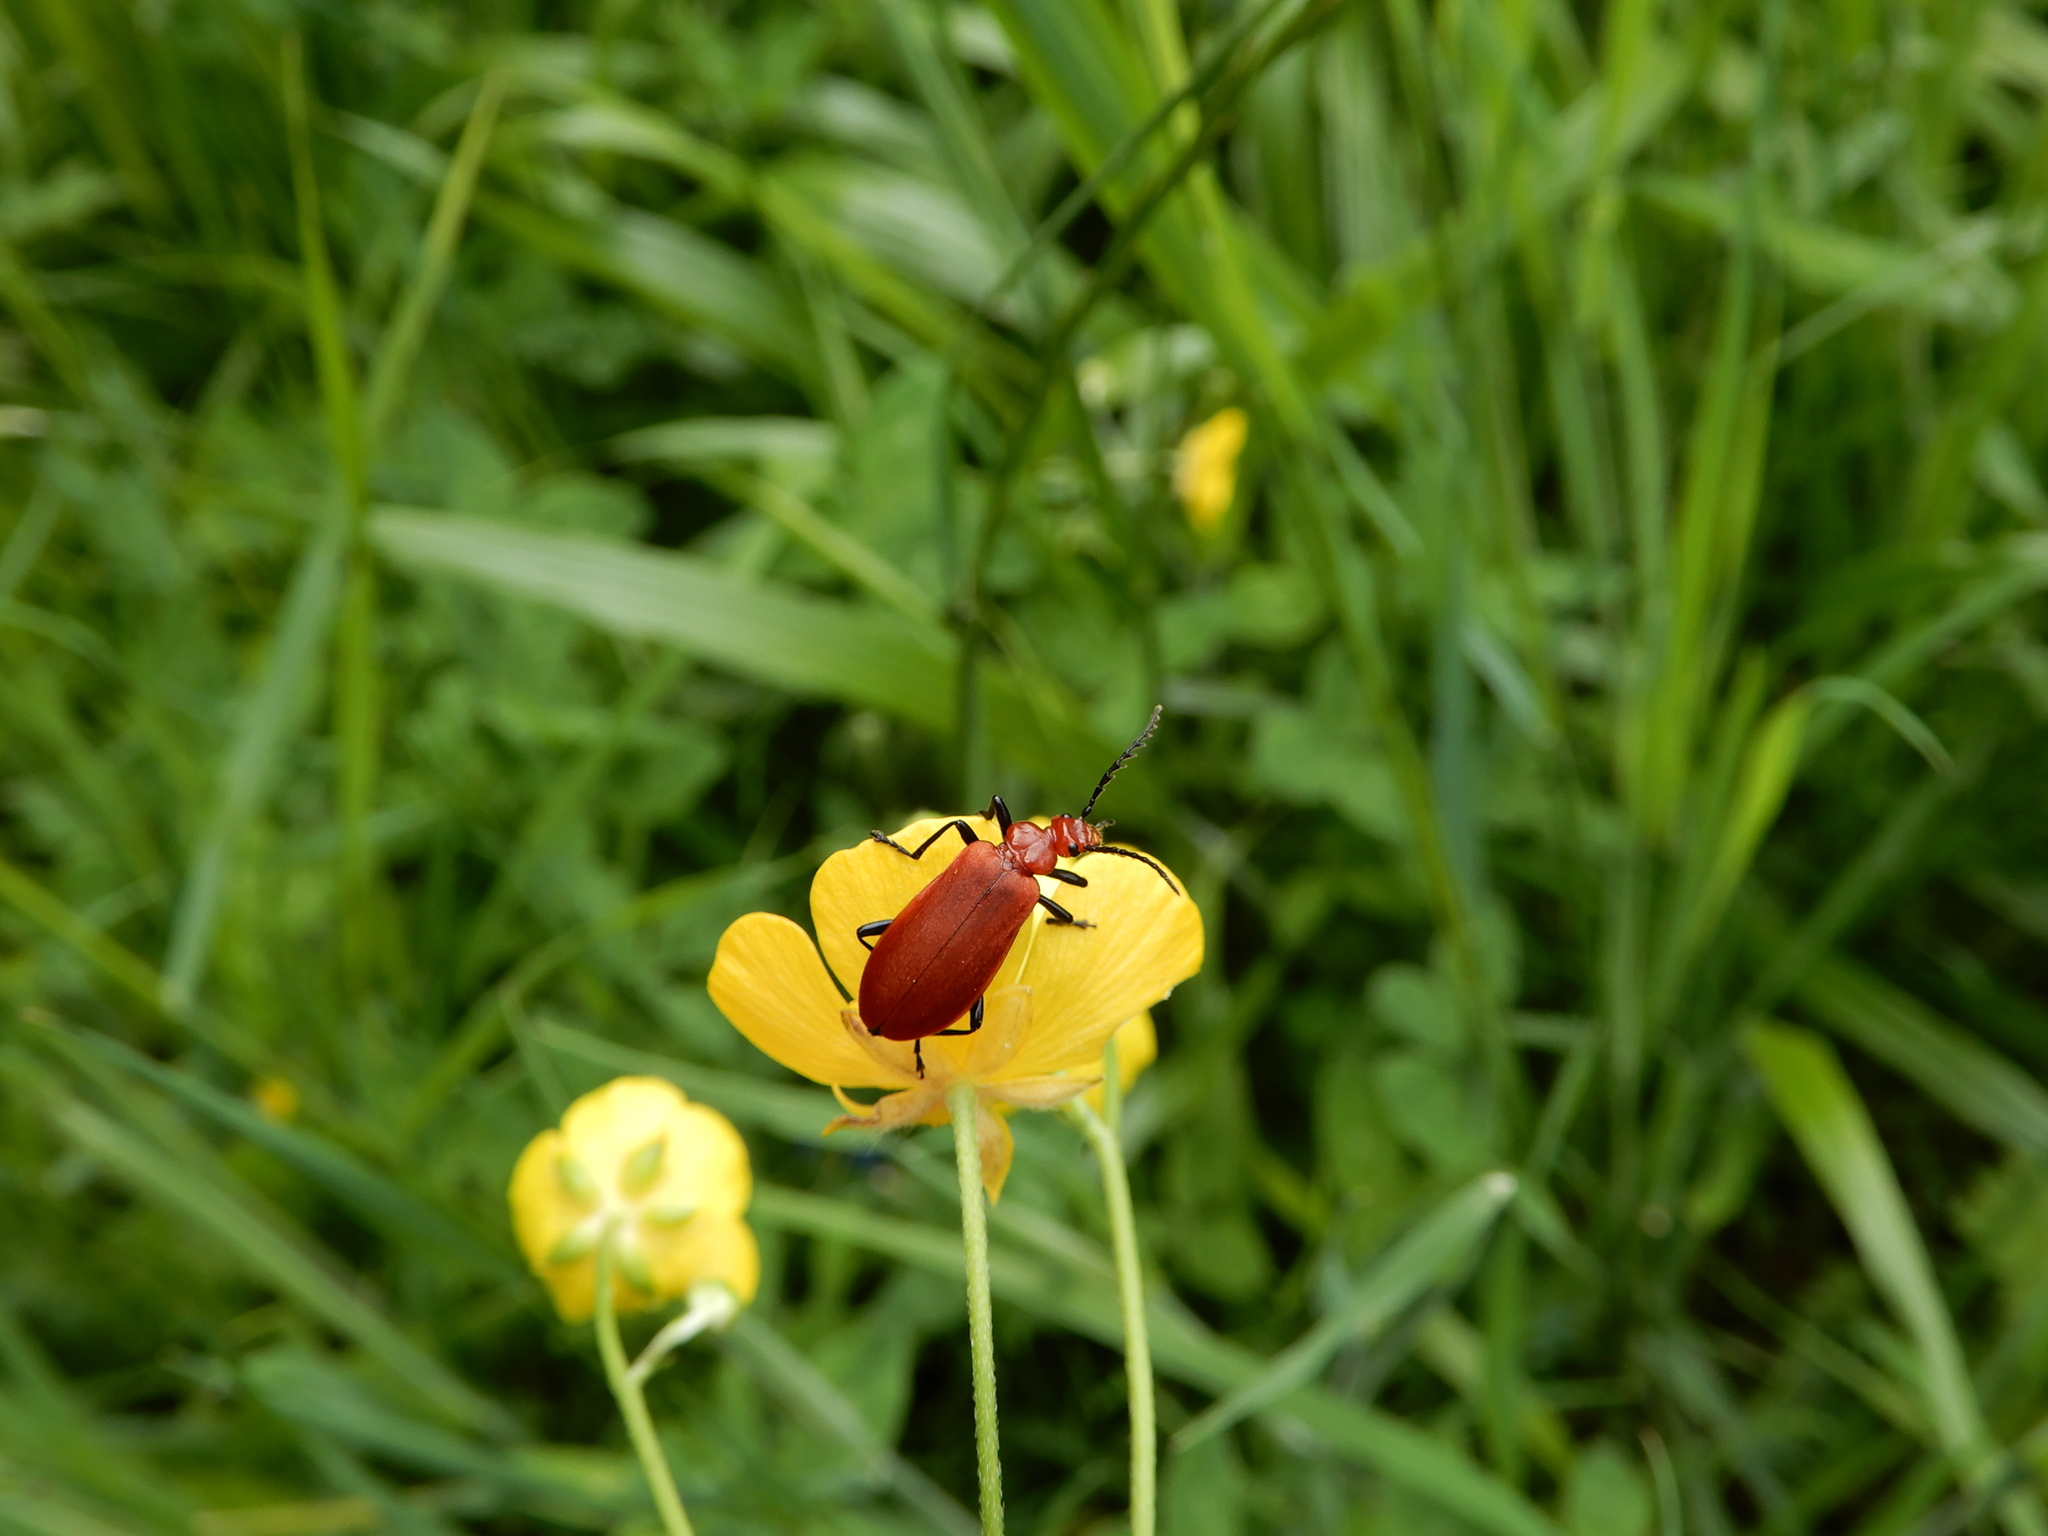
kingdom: Animalia
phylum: Arthropoda
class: Insecta
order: Coleoptera
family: Pyrochroidae
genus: Pyrochroa
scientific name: Pyrochroa serraticornis
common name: Red-headed cardinal beetle
